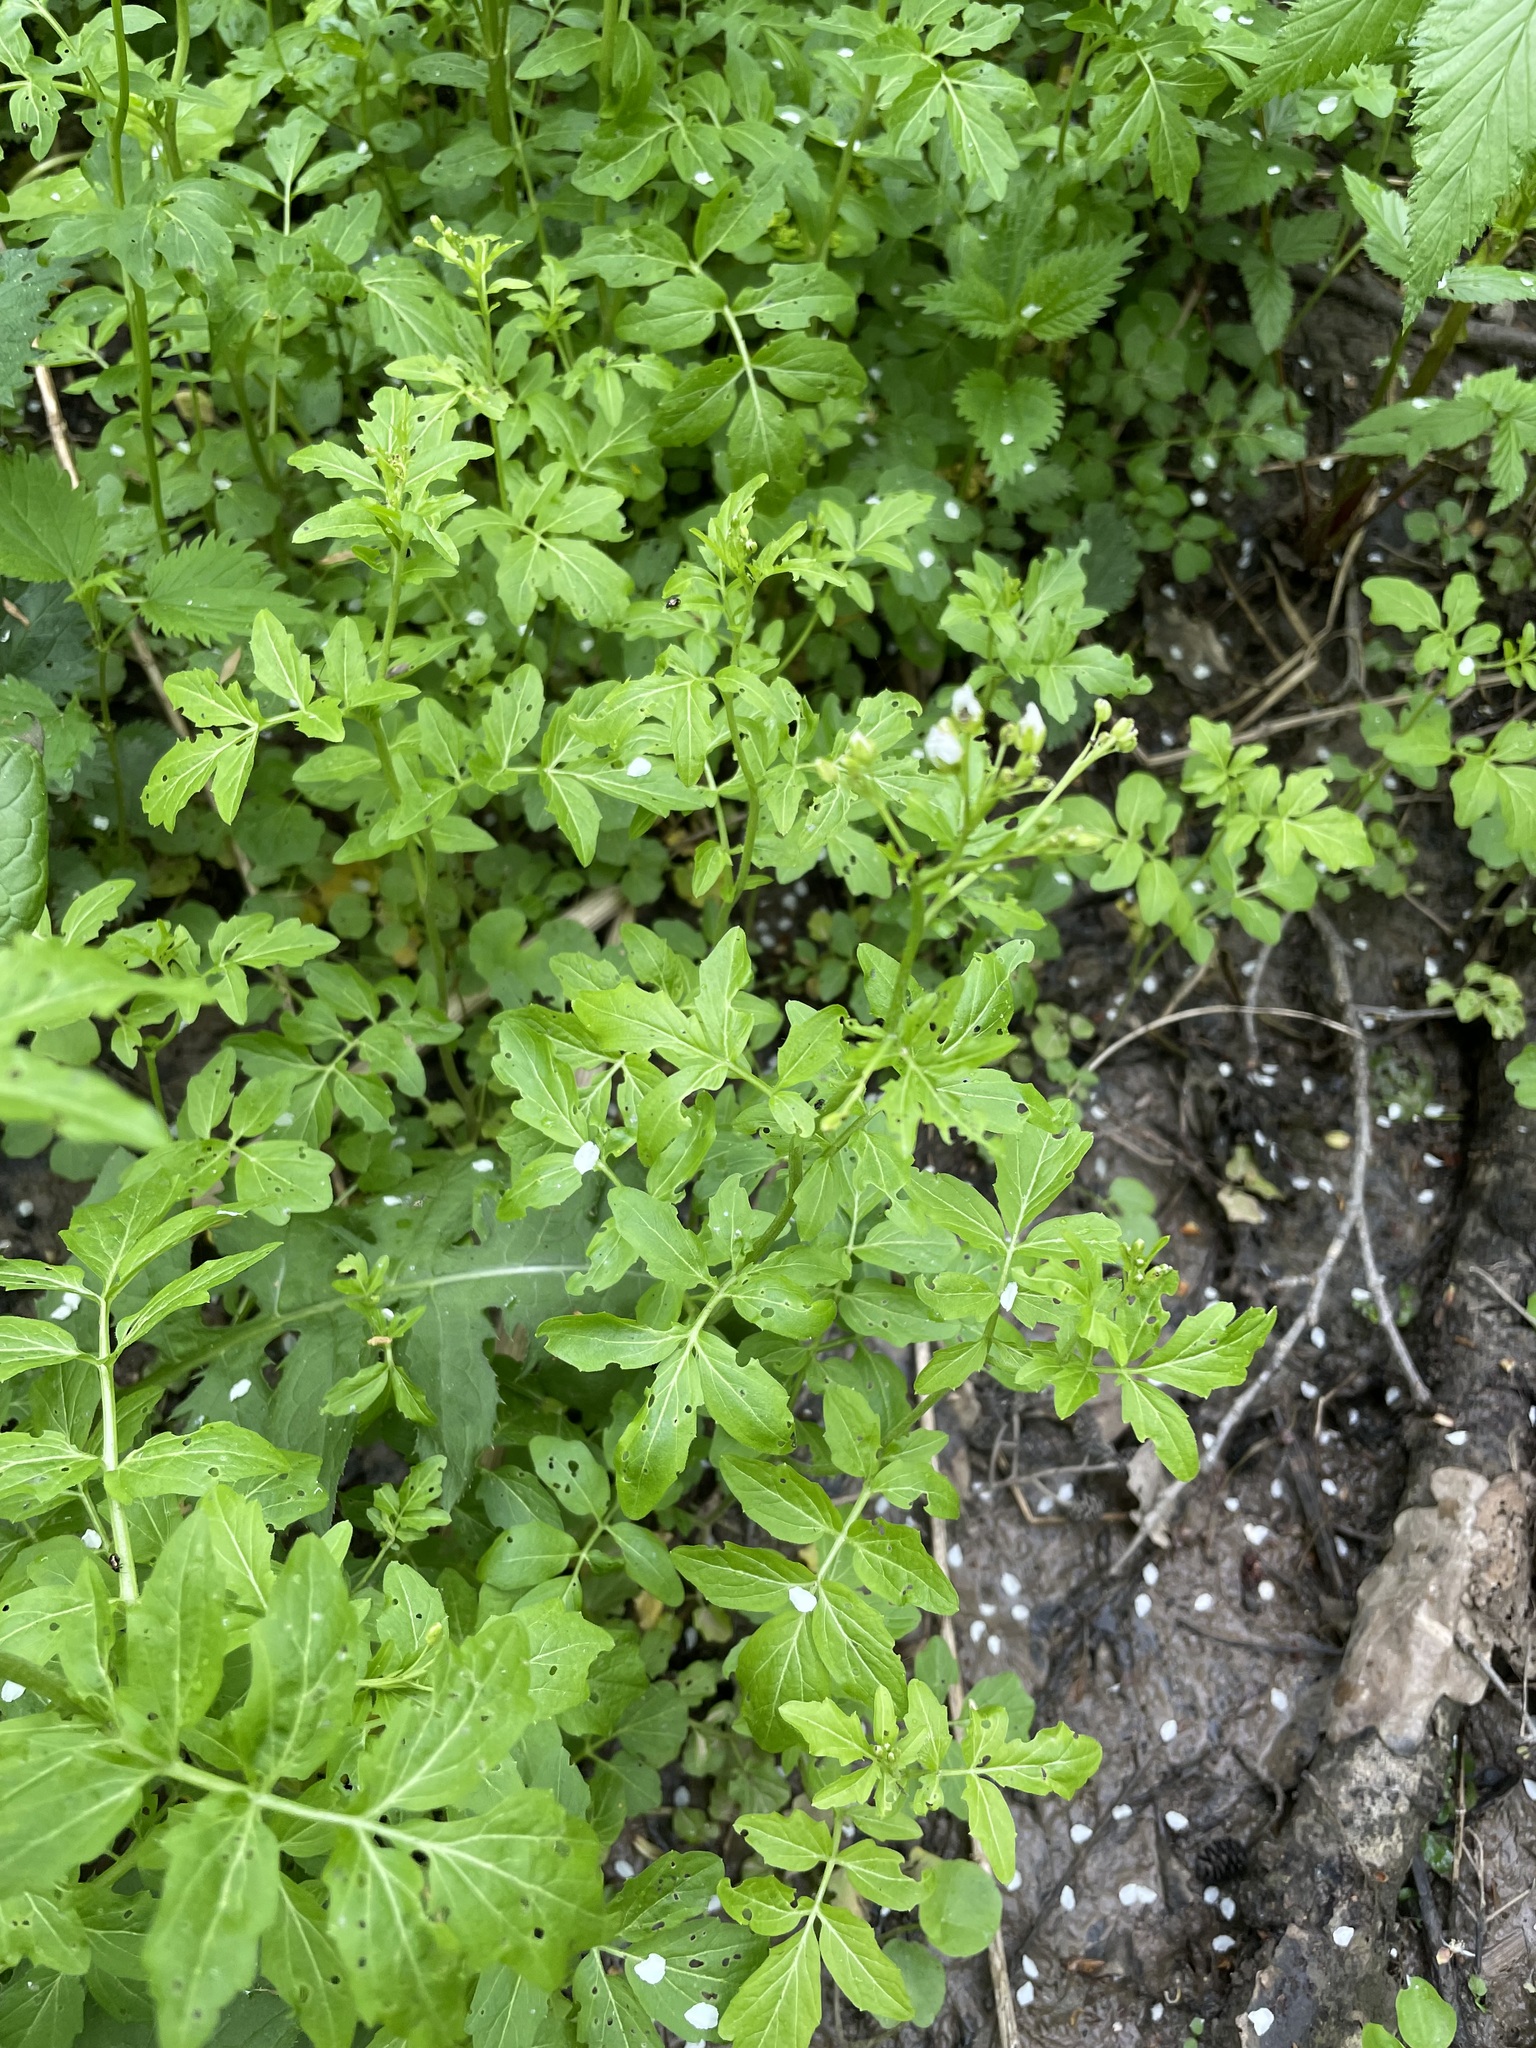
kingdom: Plantae
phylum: Tracheophyta
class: Magnoliopsida
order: Brassicales
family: Brassicaceae
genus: Cardamine
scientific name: Cardamine amara
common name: Large bitter-cress
